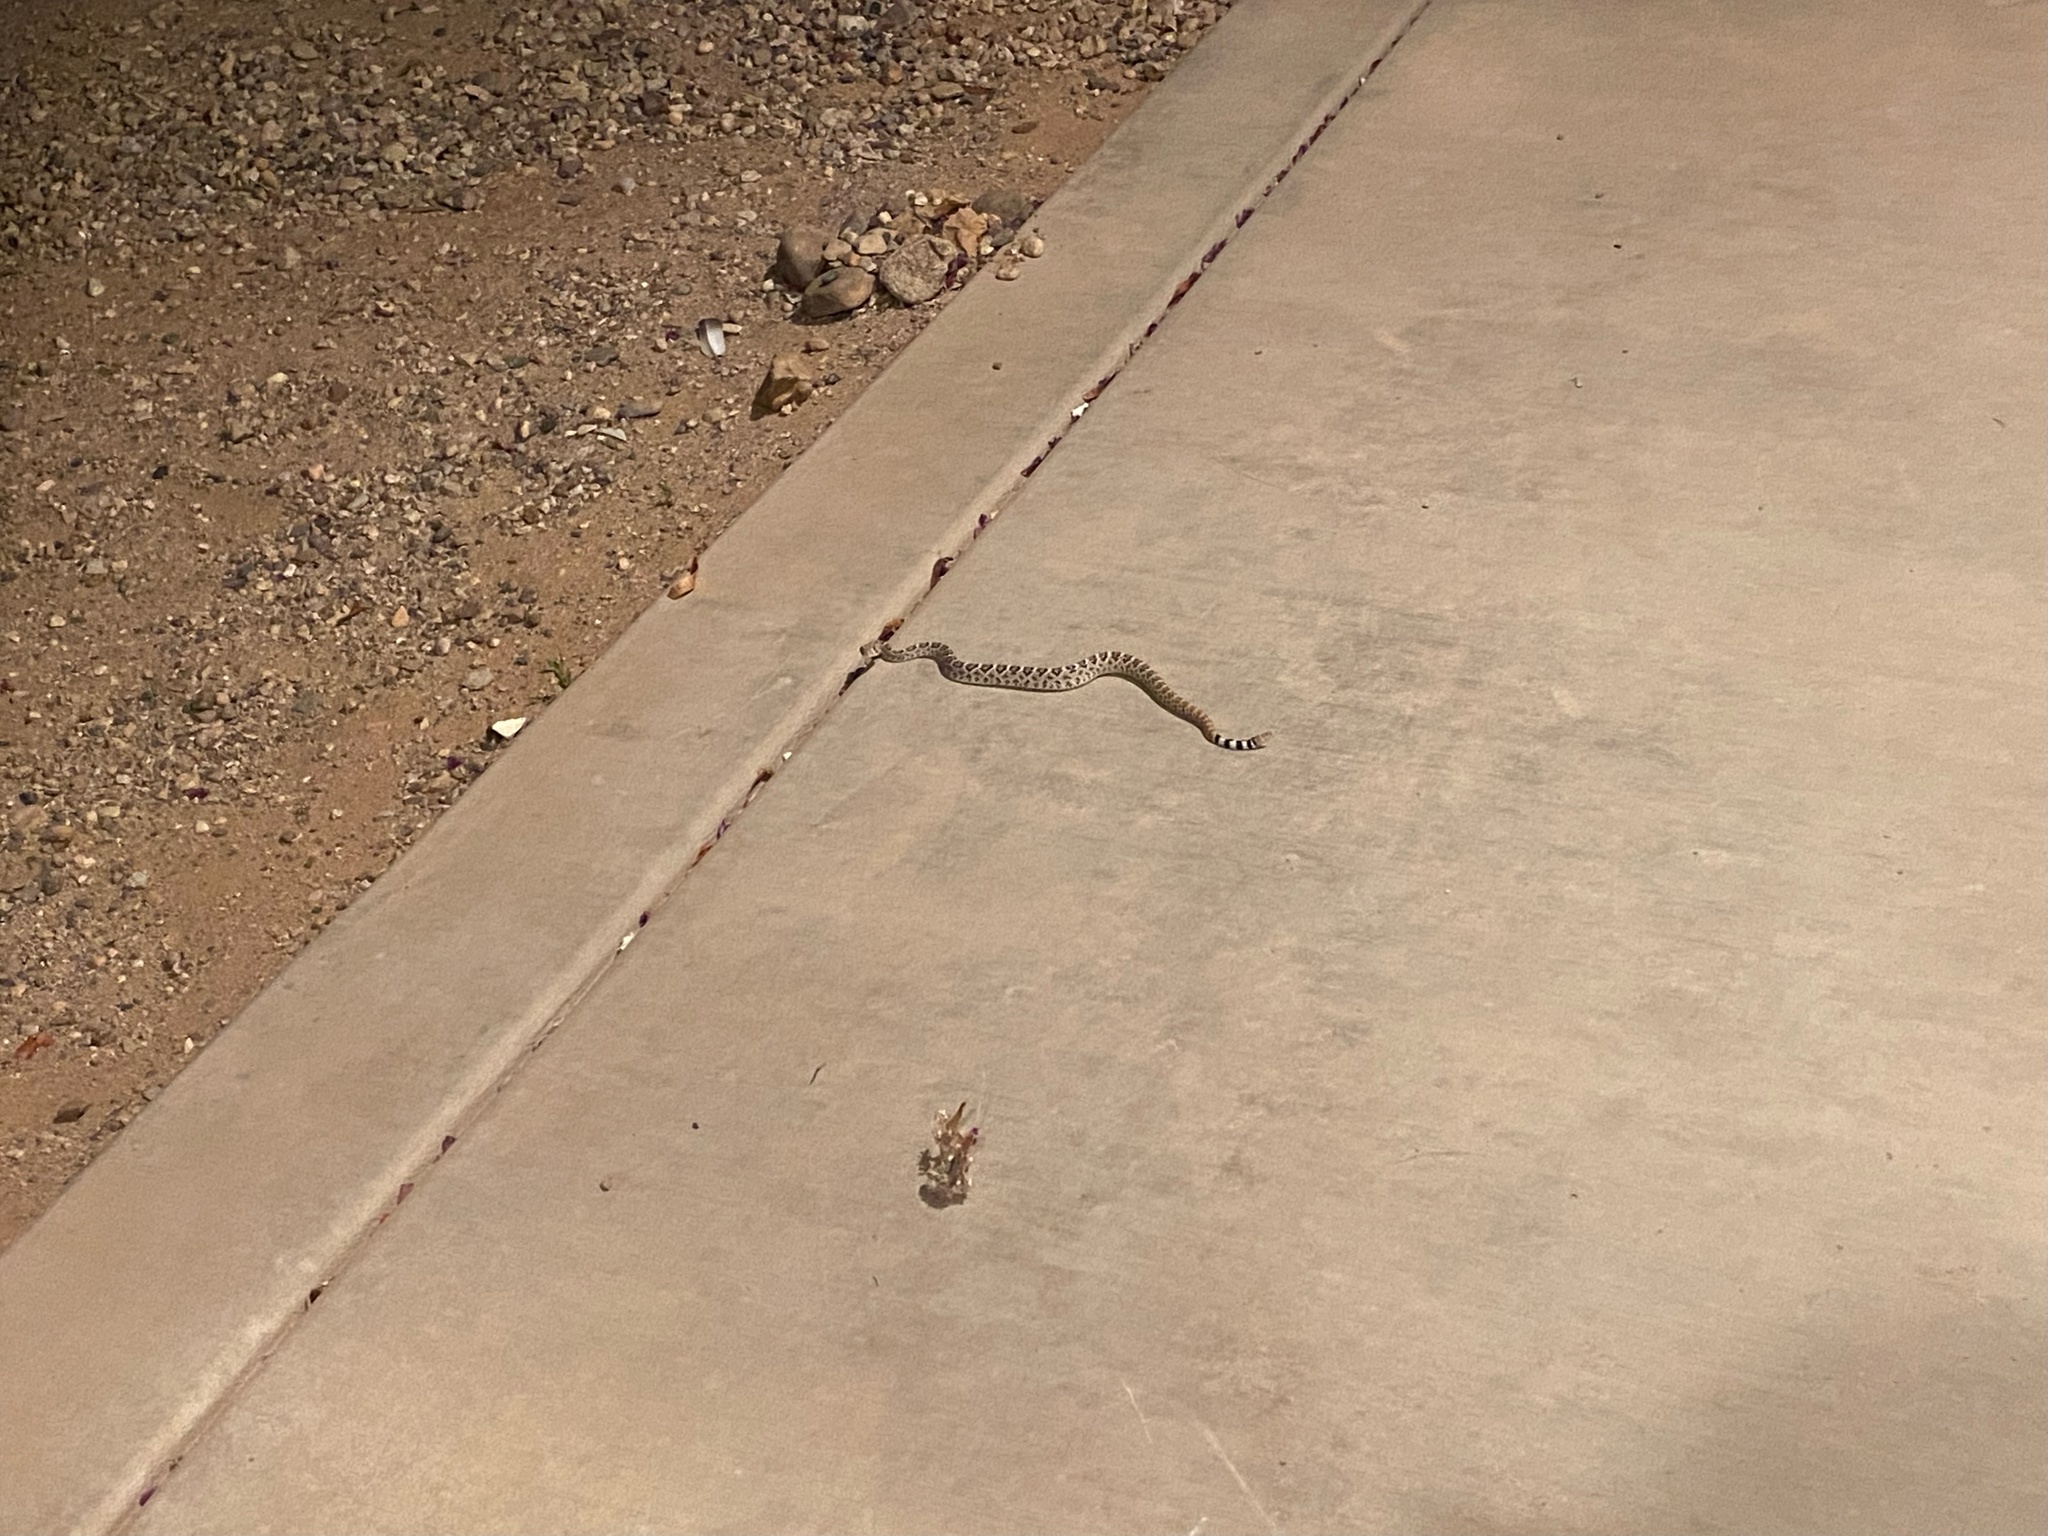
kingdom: Animalia
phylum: Chordata
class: Squamata
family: Viperidae
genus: Crotalus
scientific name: Crotalus atrox
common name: Western diamond-backed rattlesnake
